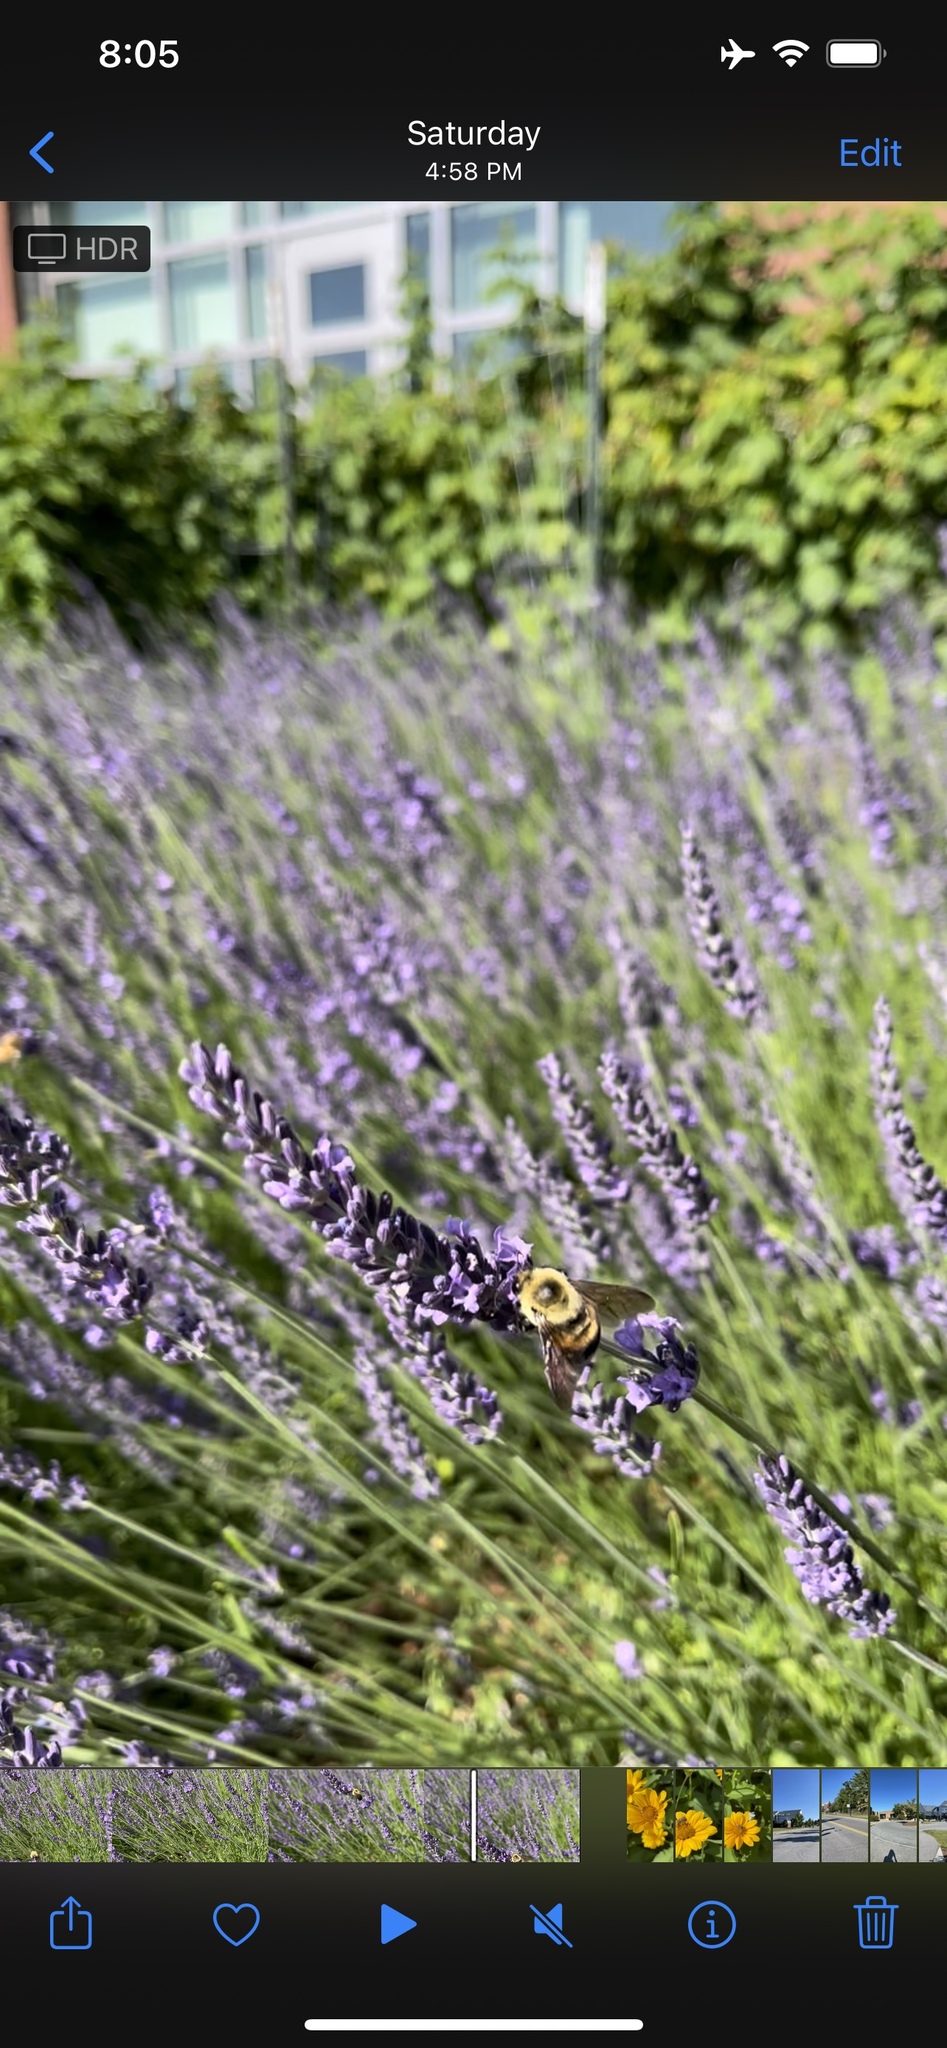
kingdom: Animalia
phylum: Arthropoda
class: Insecta
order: Hymenoptera
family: Apidae
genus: Bombus
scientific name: Bombus griseocollis
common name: Brown-belted bumble bee
